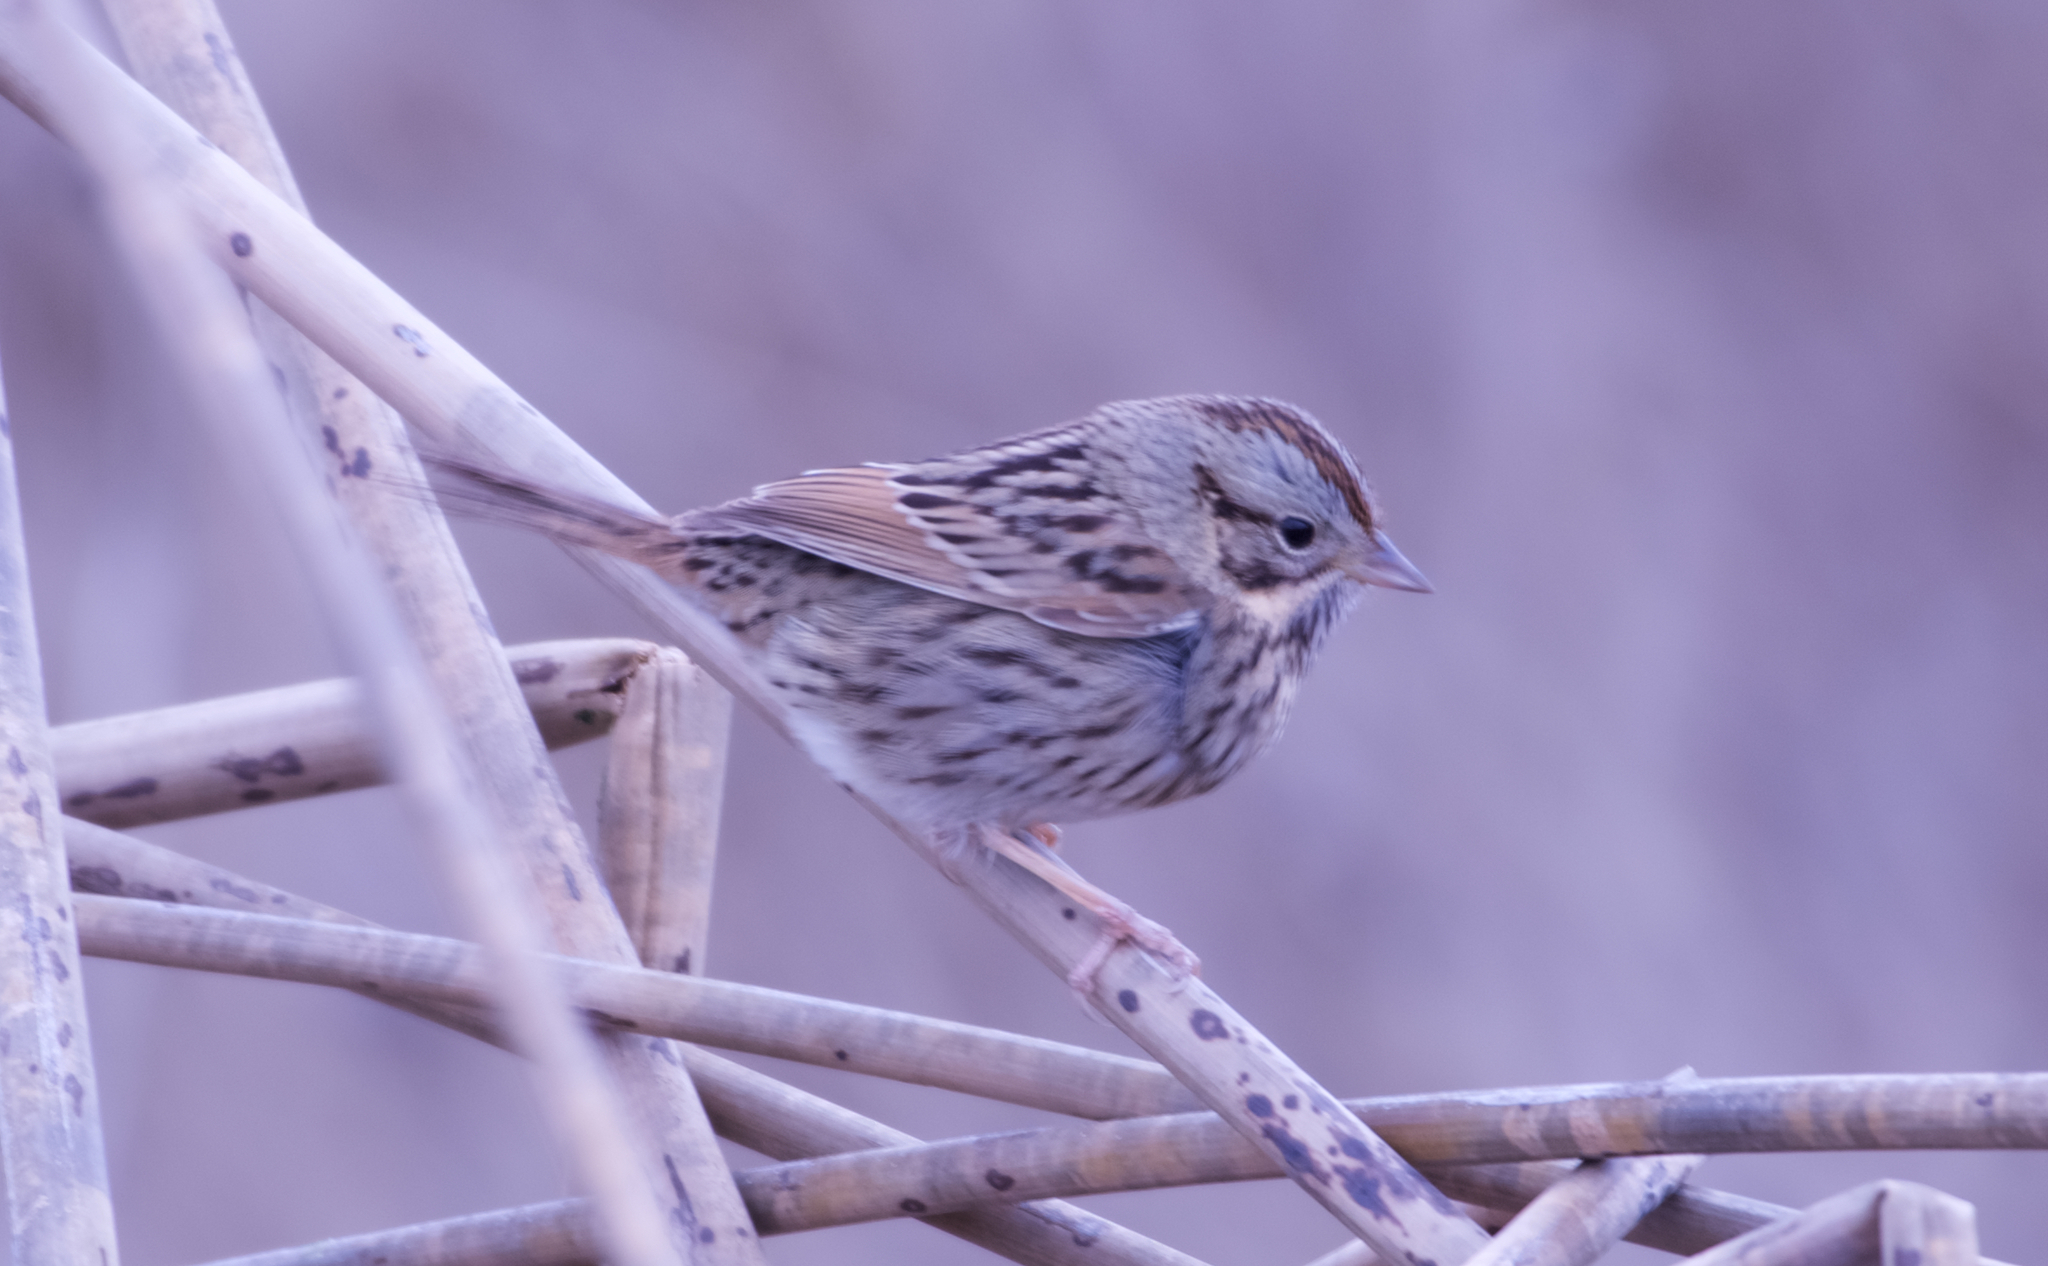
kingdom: Animalia
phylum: Chordata
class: Aves
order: Passeriformes
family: Passerellidae
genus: Melospiza
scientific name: Melospiza lincolnii
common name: Lincoln's sparrow
